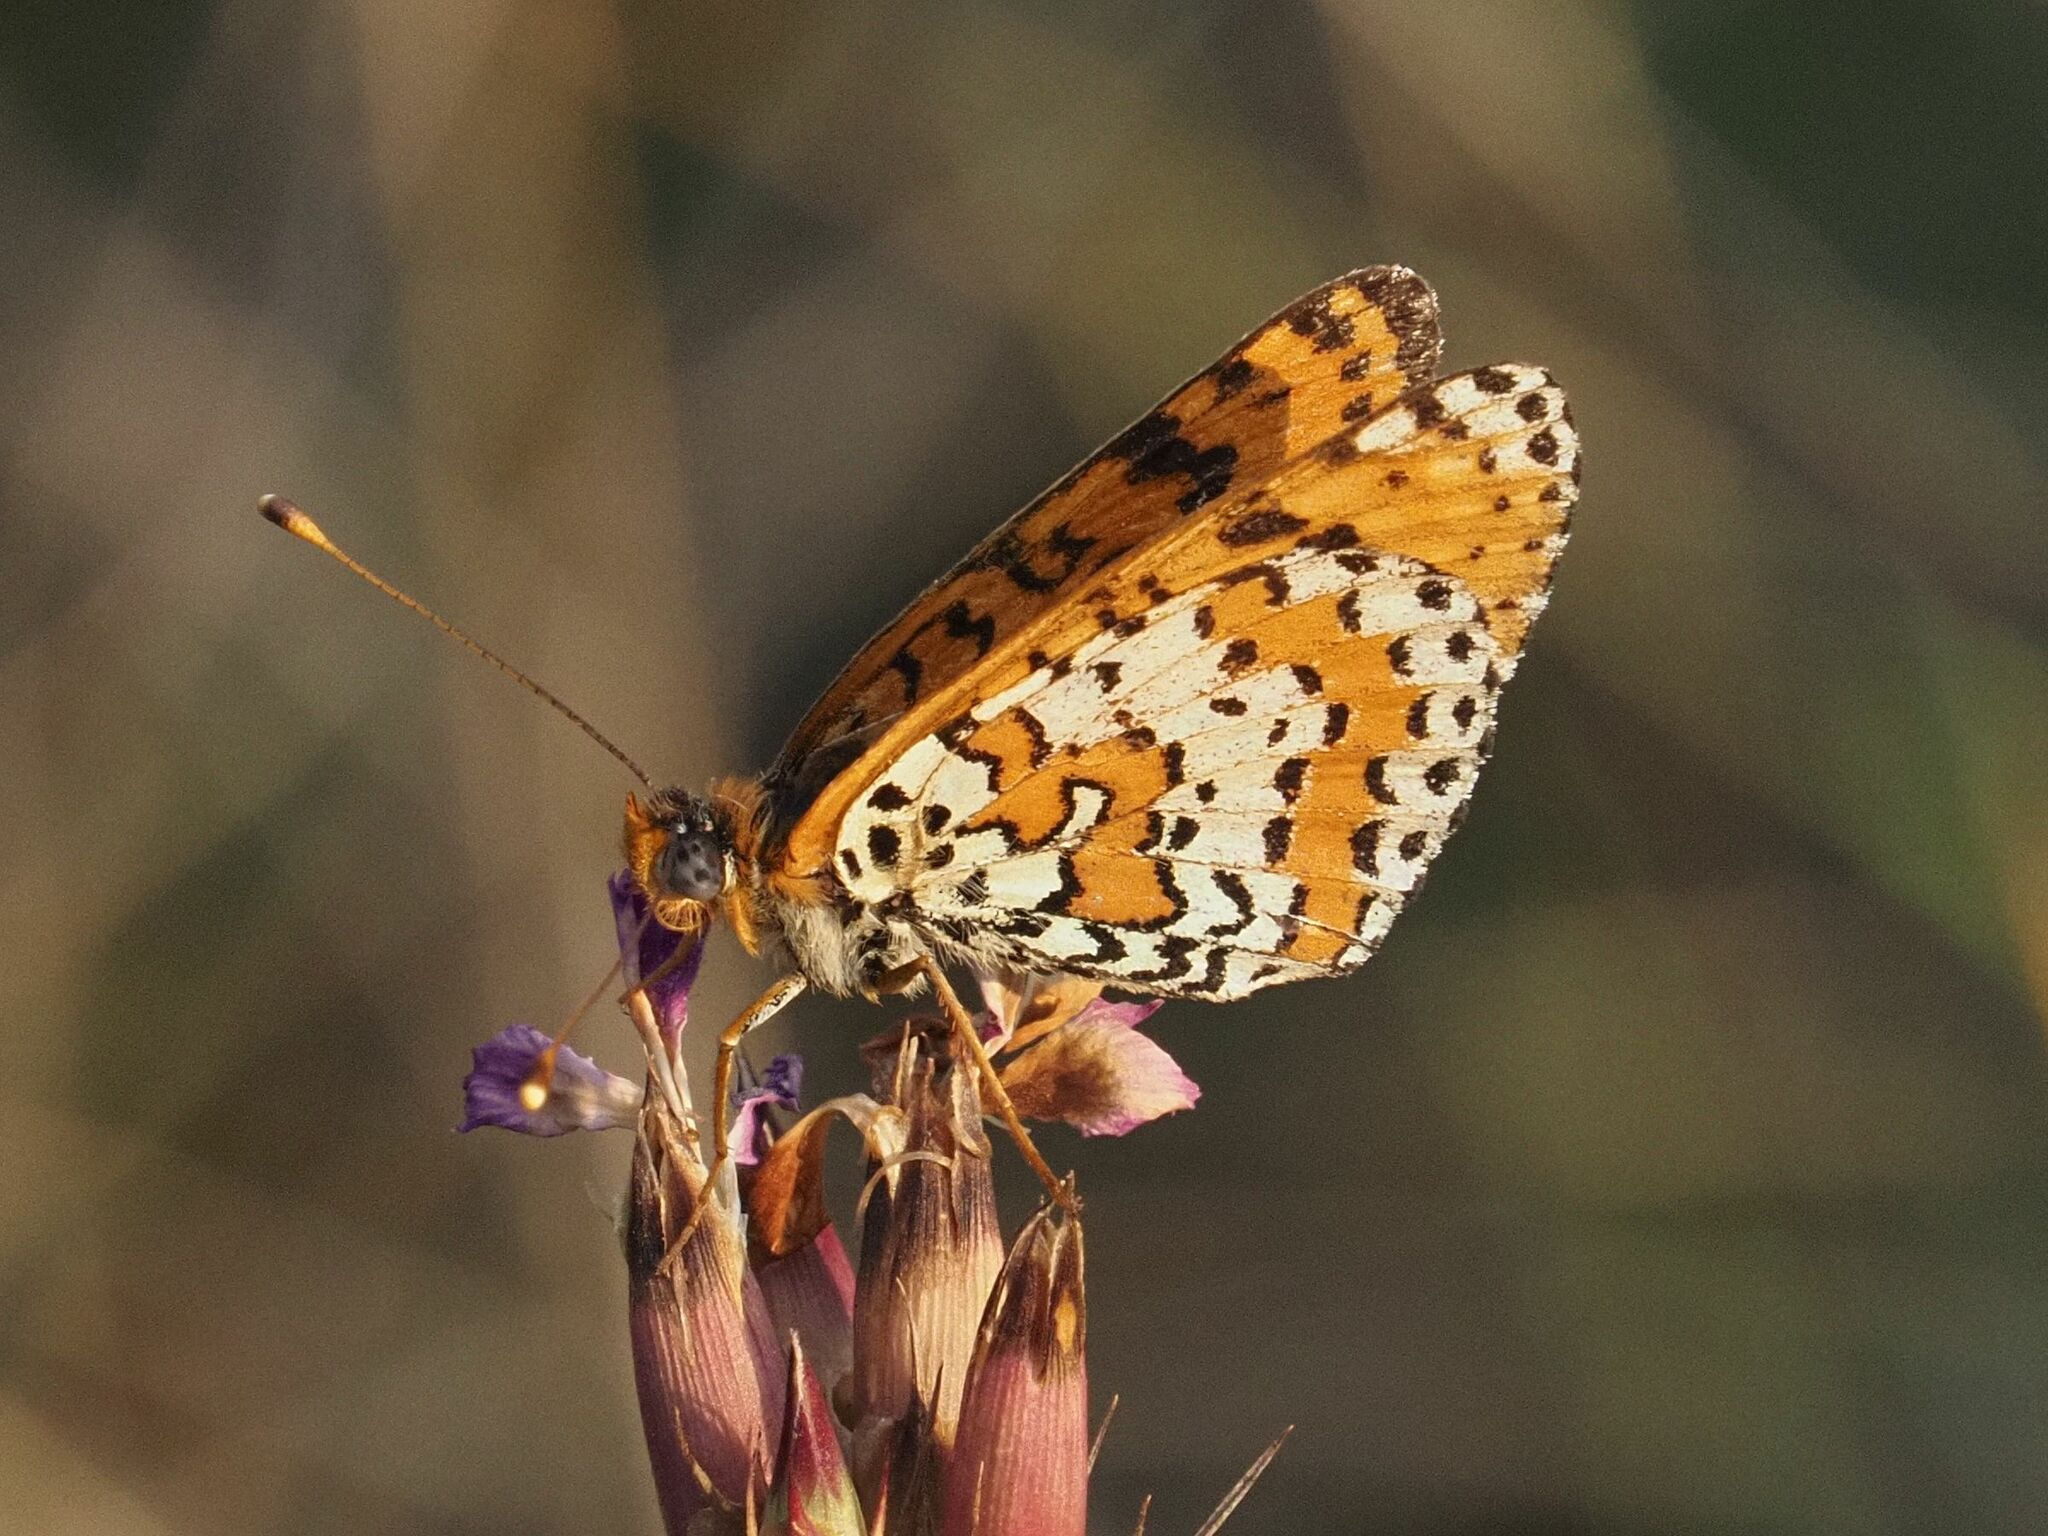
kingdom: Animalia
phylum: Arthropoda
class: Insecta
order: Lepidoptera
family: Nymphalidae
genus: Melitaea
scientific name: Melitaea didyma
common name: Spotted fritillary
